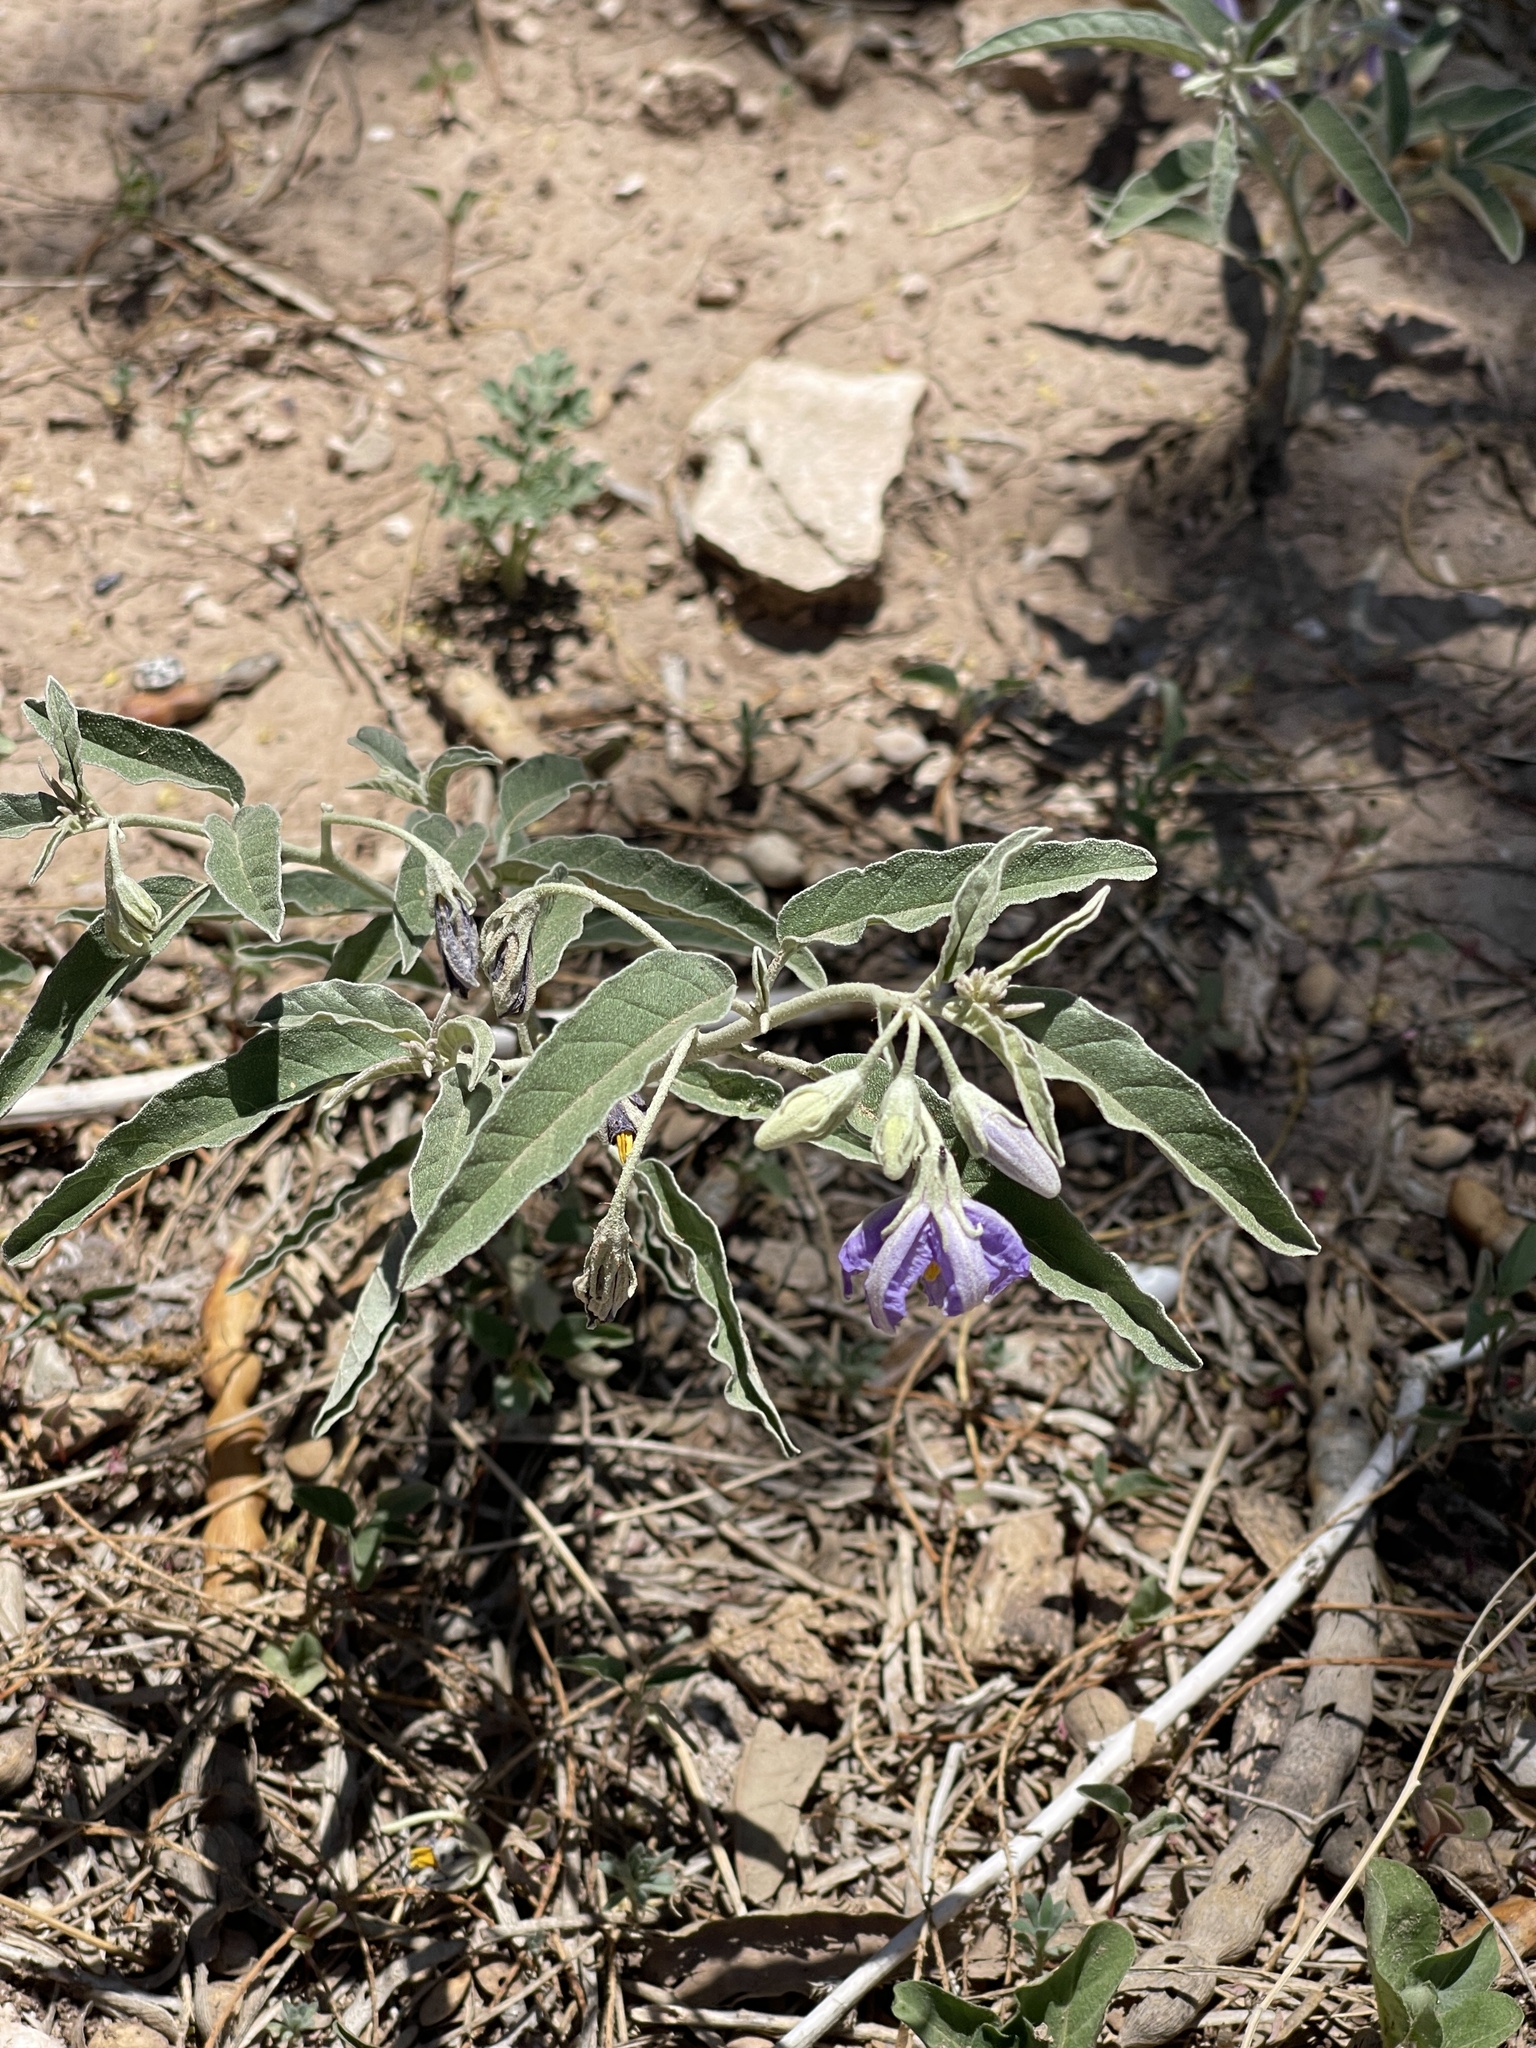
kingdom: Plantae
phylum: Tracheophyta
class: Magnoliopsida
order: Solanales
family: Solanaceae
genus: Solanum
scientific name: Solanum elaeagnifolium
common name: Silverleaf nightshade
